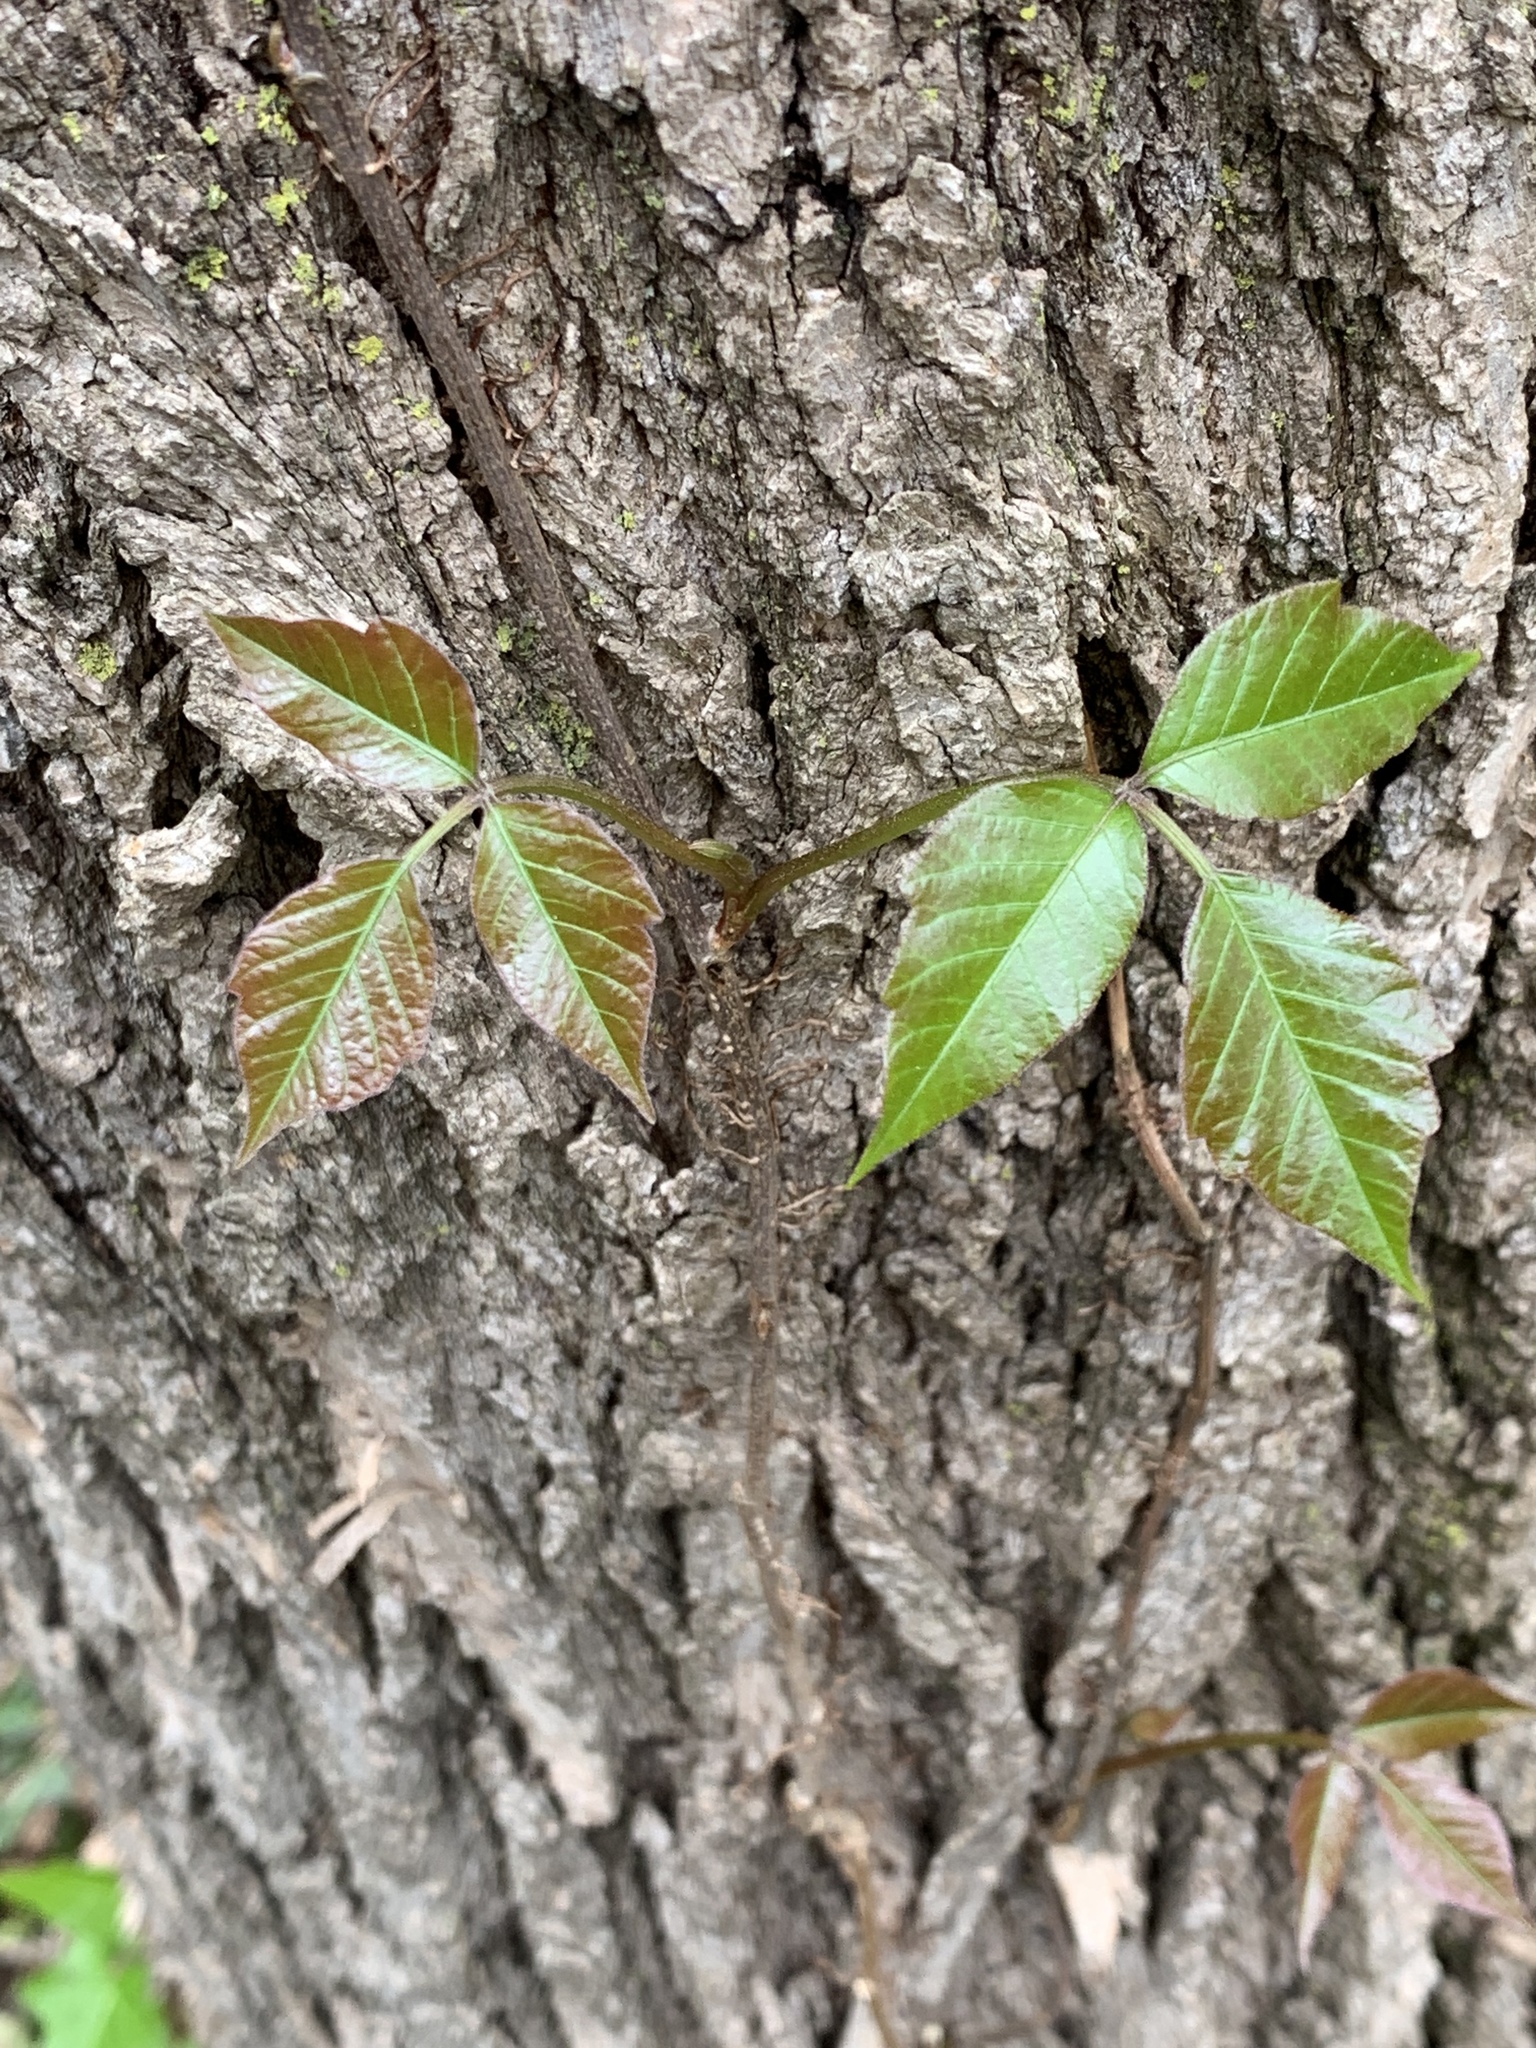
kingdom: Plantae
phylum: Tracheophyta
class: Magnoliopsida
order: Sapindales
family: Anacardiaceae
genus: Toxicodendron
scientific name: Toxicodendron radicans
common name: Poison ivy
